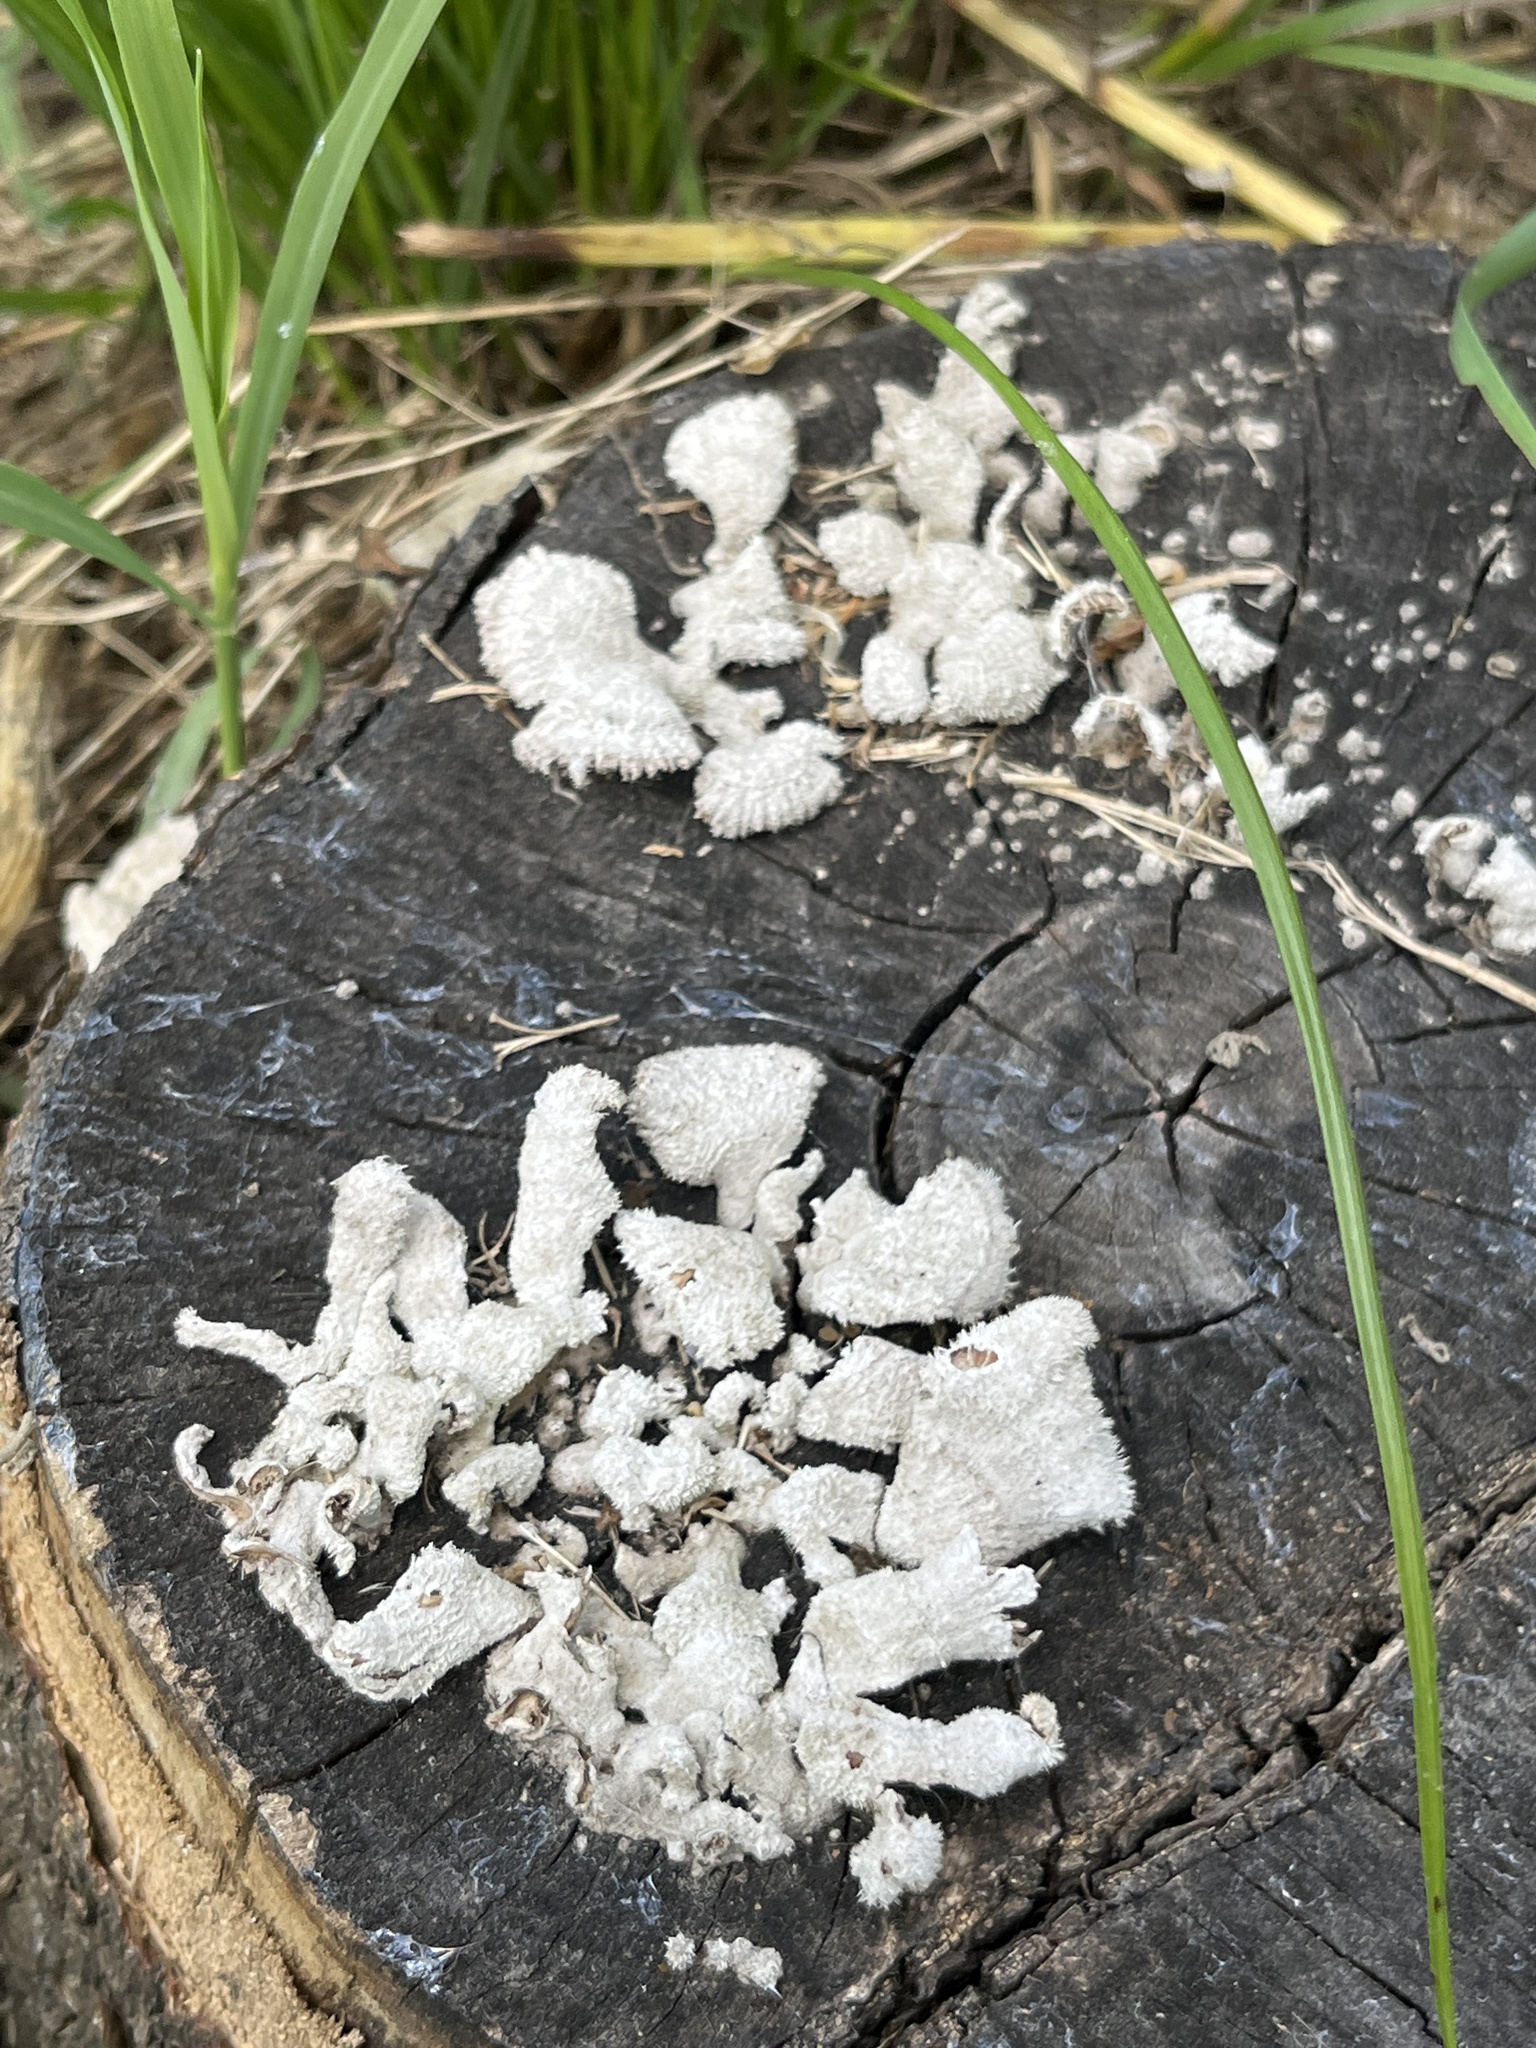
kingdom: Fungi
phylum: Basidiomycota
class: Agaricomycetes
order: Agaricales
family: Schizophyllaceae
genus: Schizophyllum
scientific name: Schizophyllum commune
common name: Common porecrust
